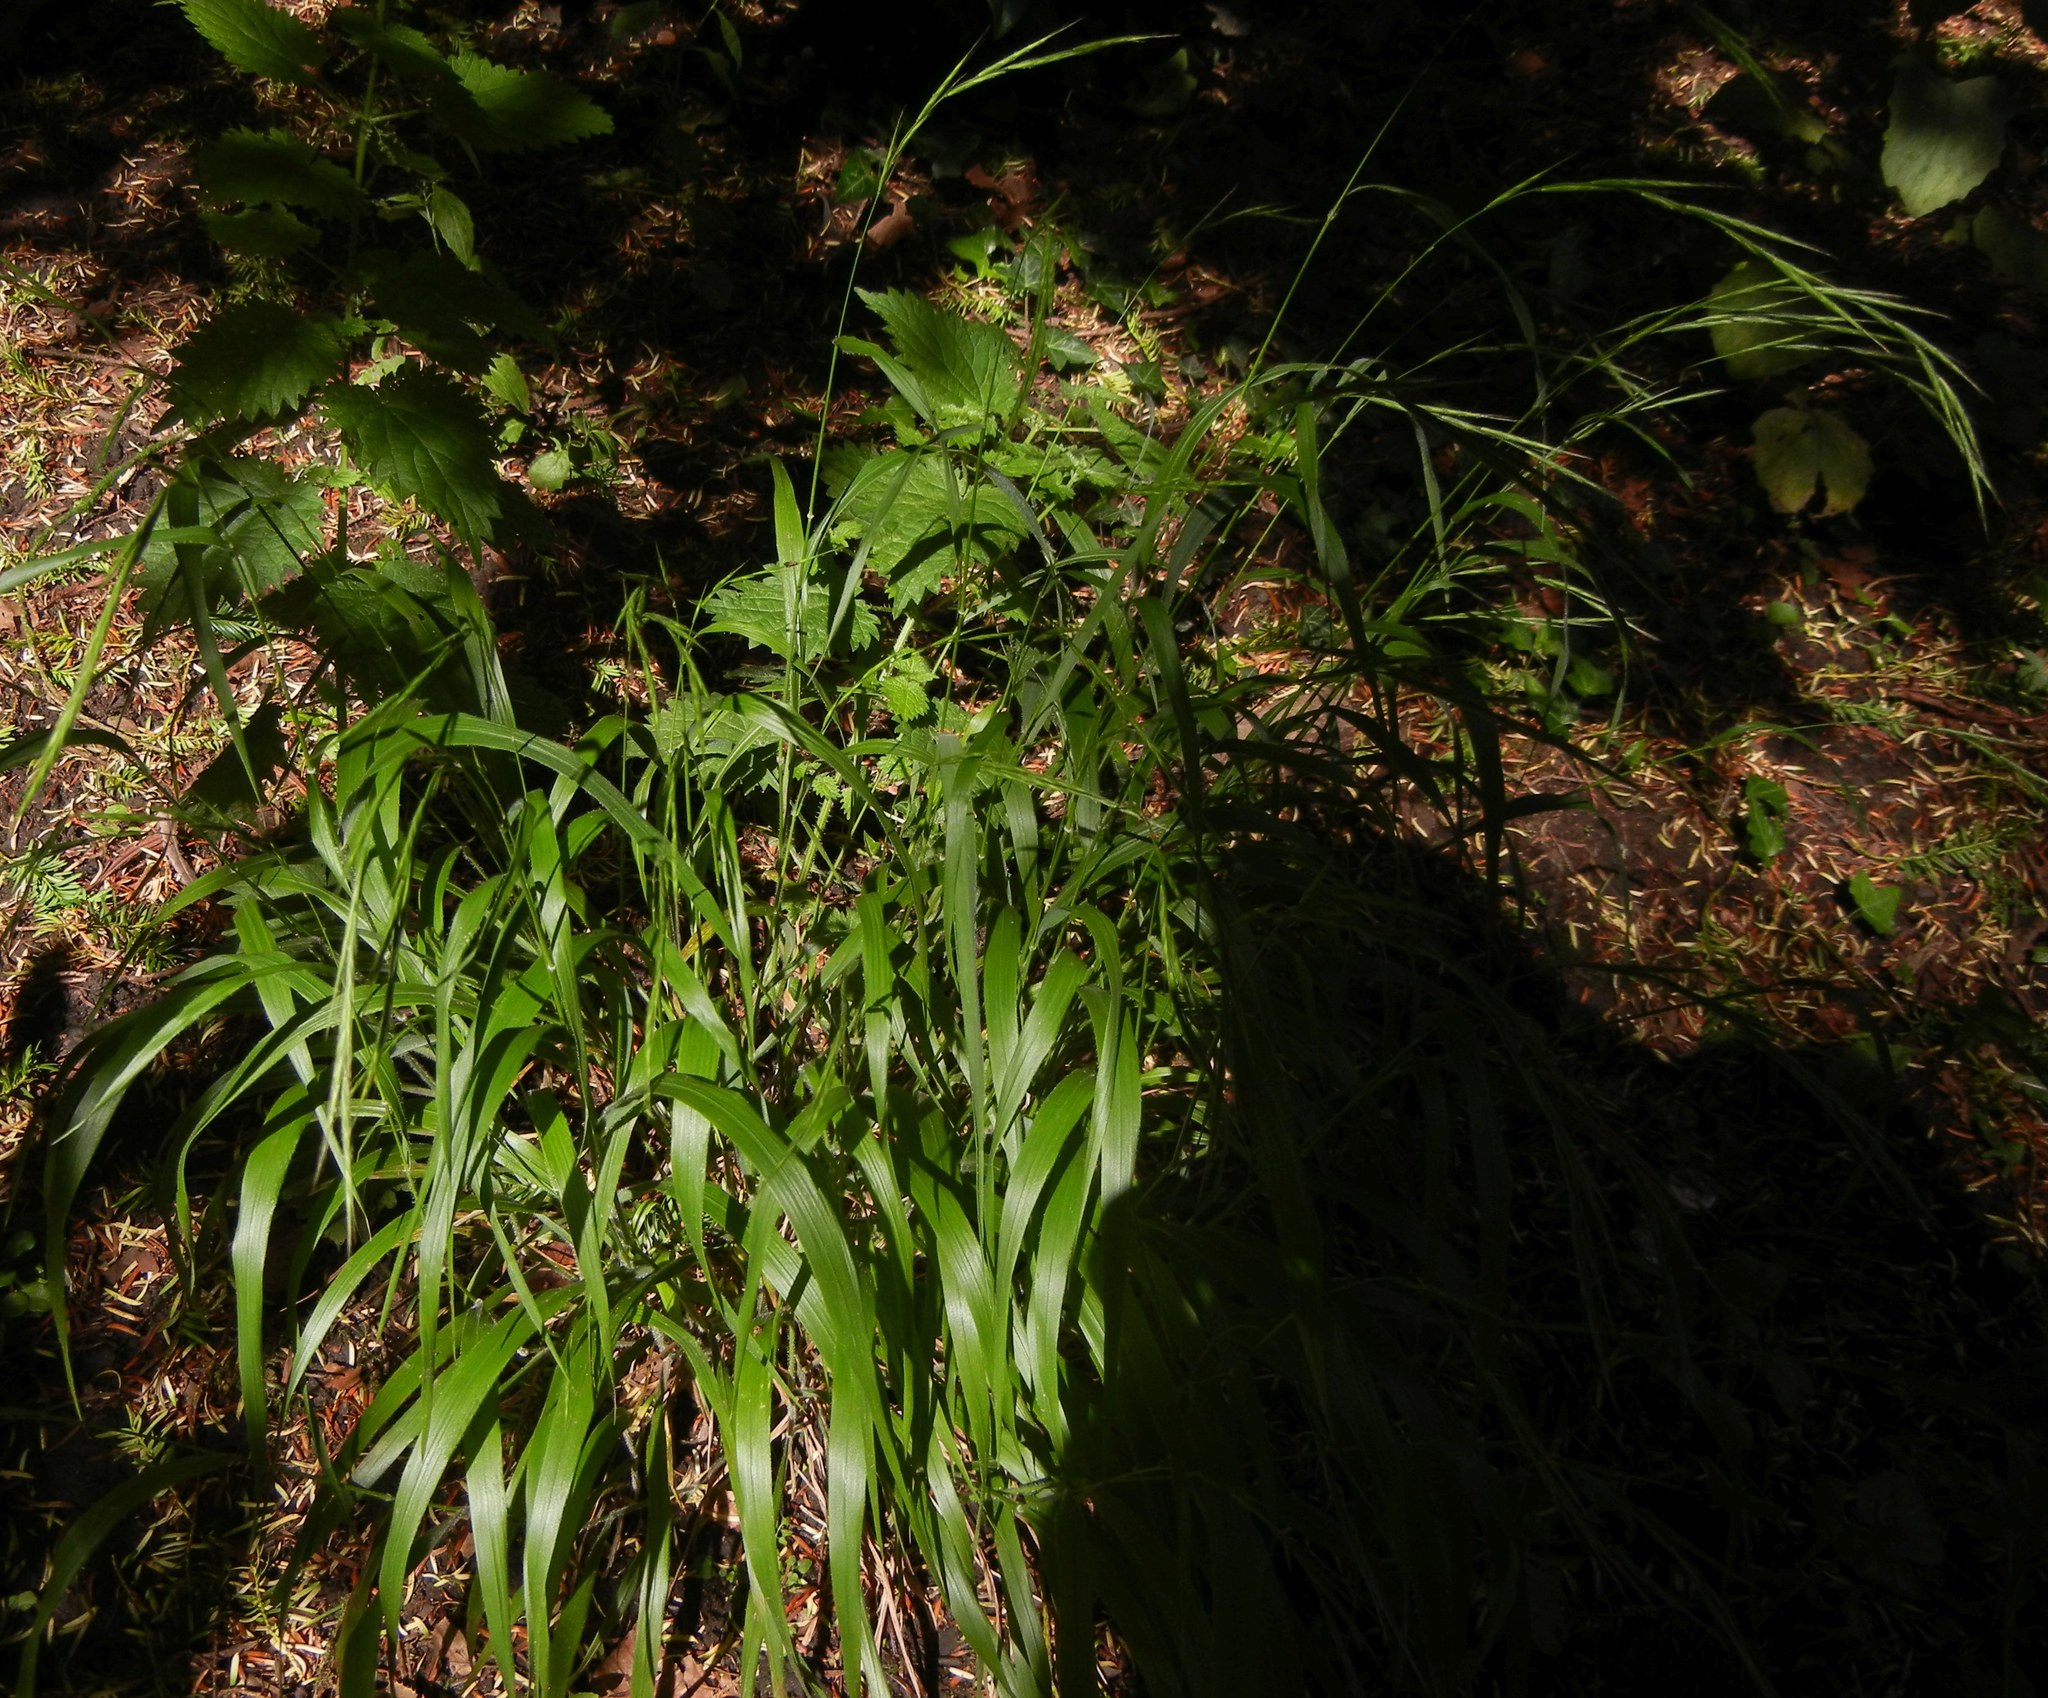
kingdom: Plantae
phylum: Tracheophyta
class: Liliopsida
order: Poales
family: Poaceae
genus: Brachypodium
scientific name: Brachypodium sylvaticum
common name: False-brome
